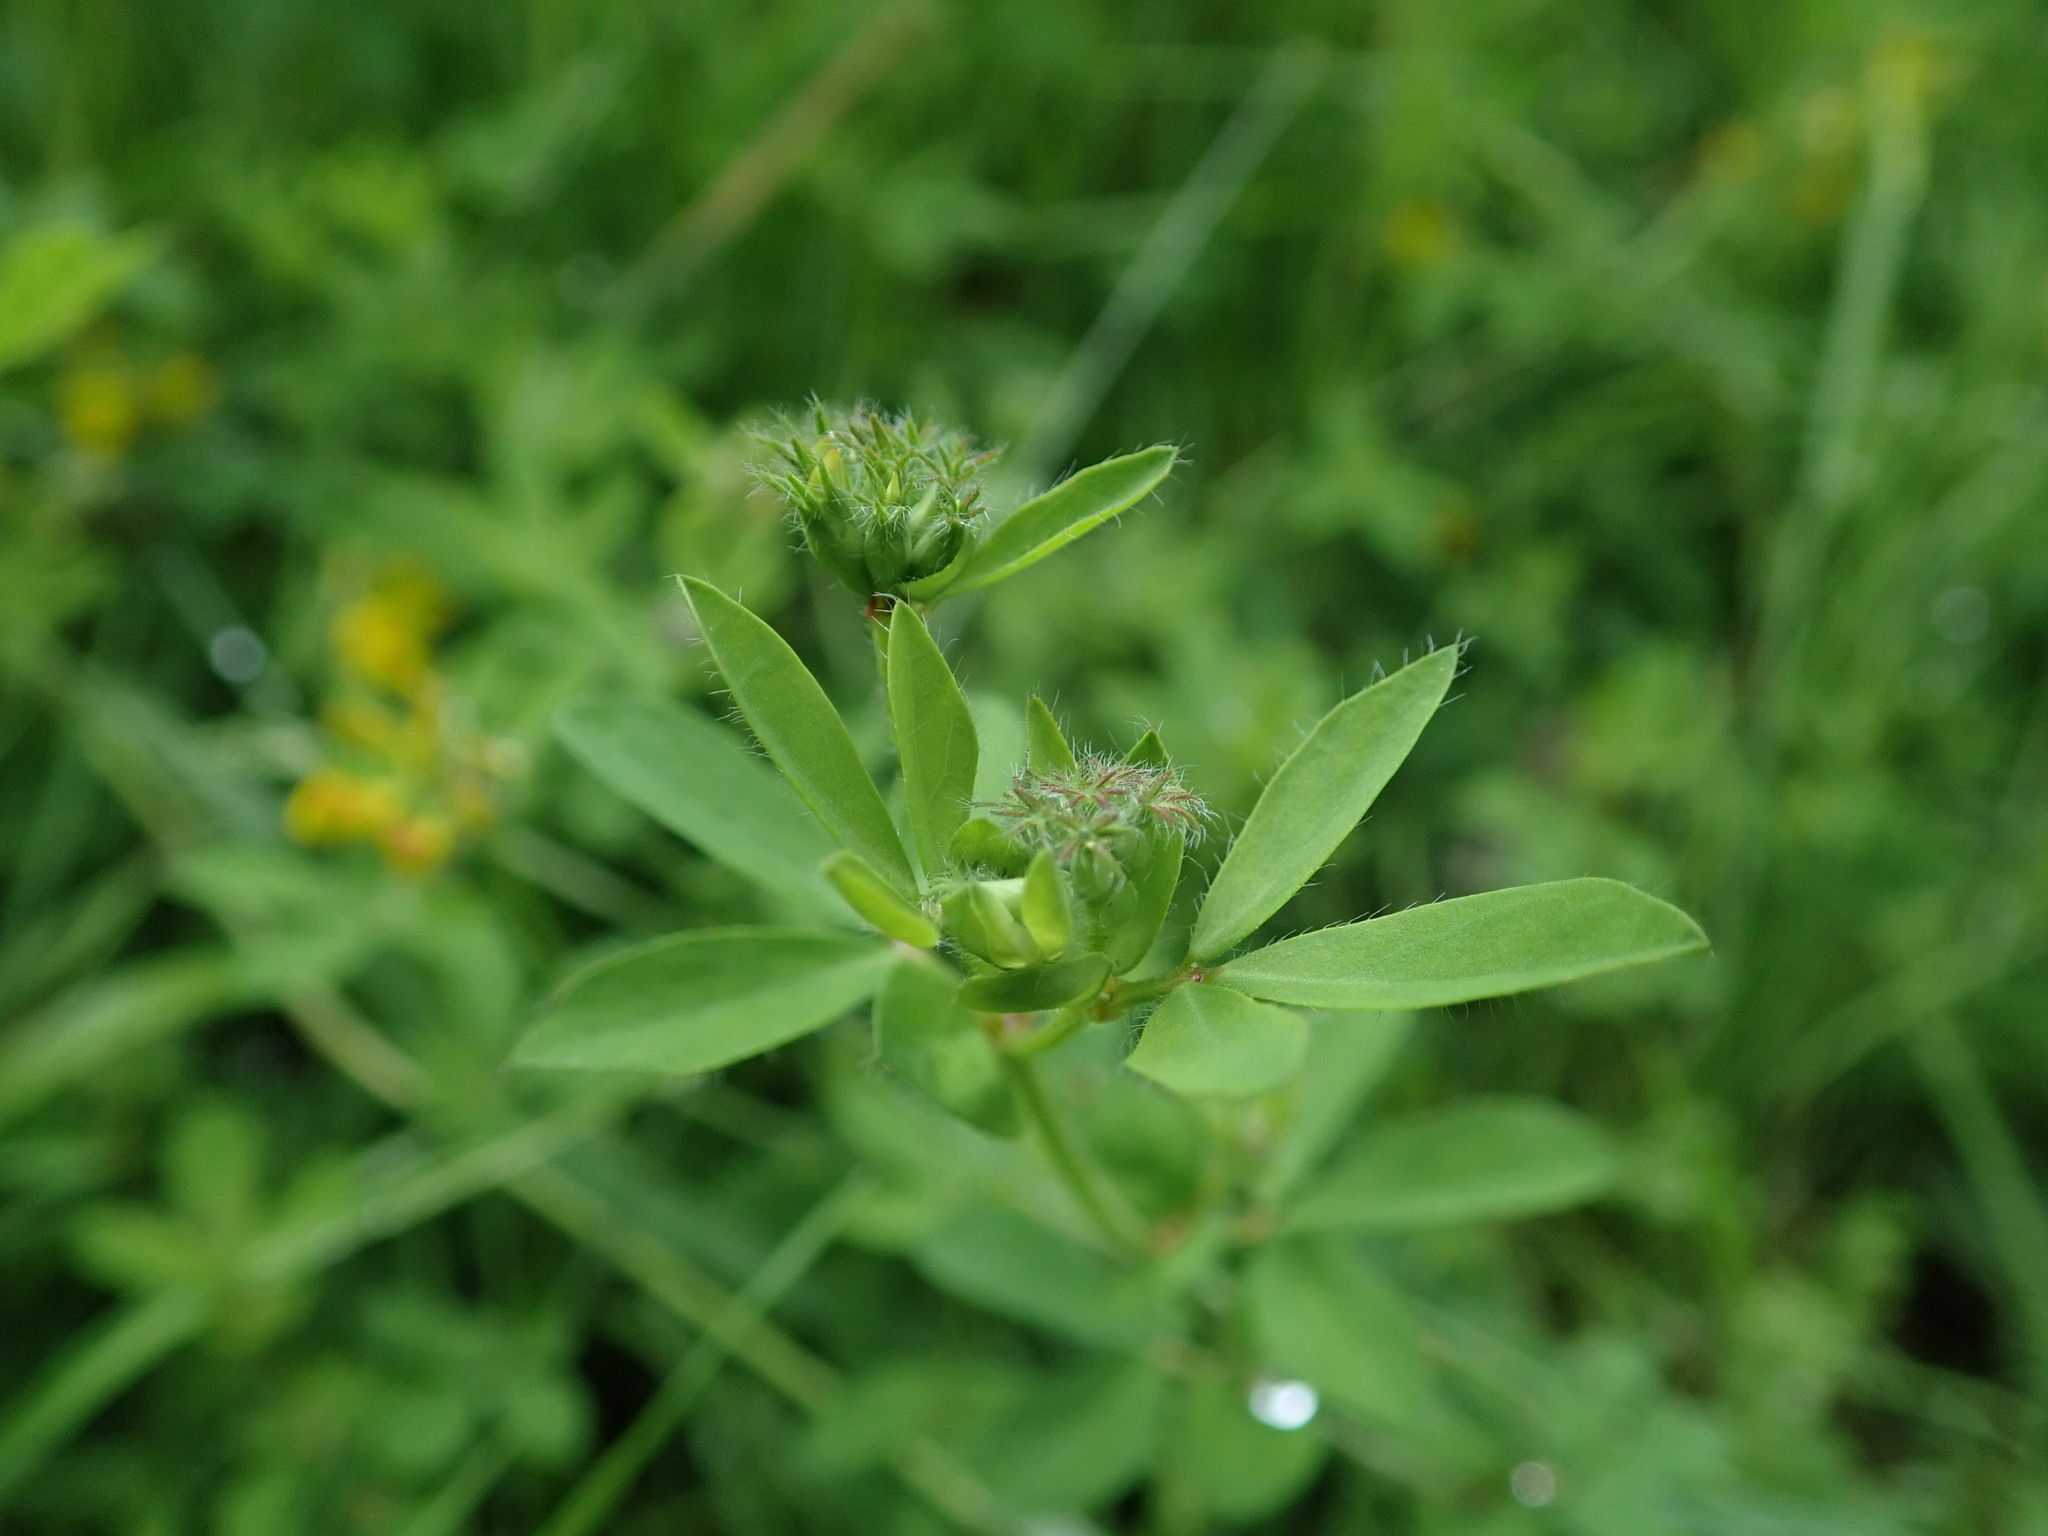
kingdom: Plantae
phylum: Tracheophyta
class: Magnoliopsida
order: Fabales
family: Fabaceae
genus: Lotus
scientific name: Lotus pedunculatus
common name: Greater birdsfoot-trefoil
